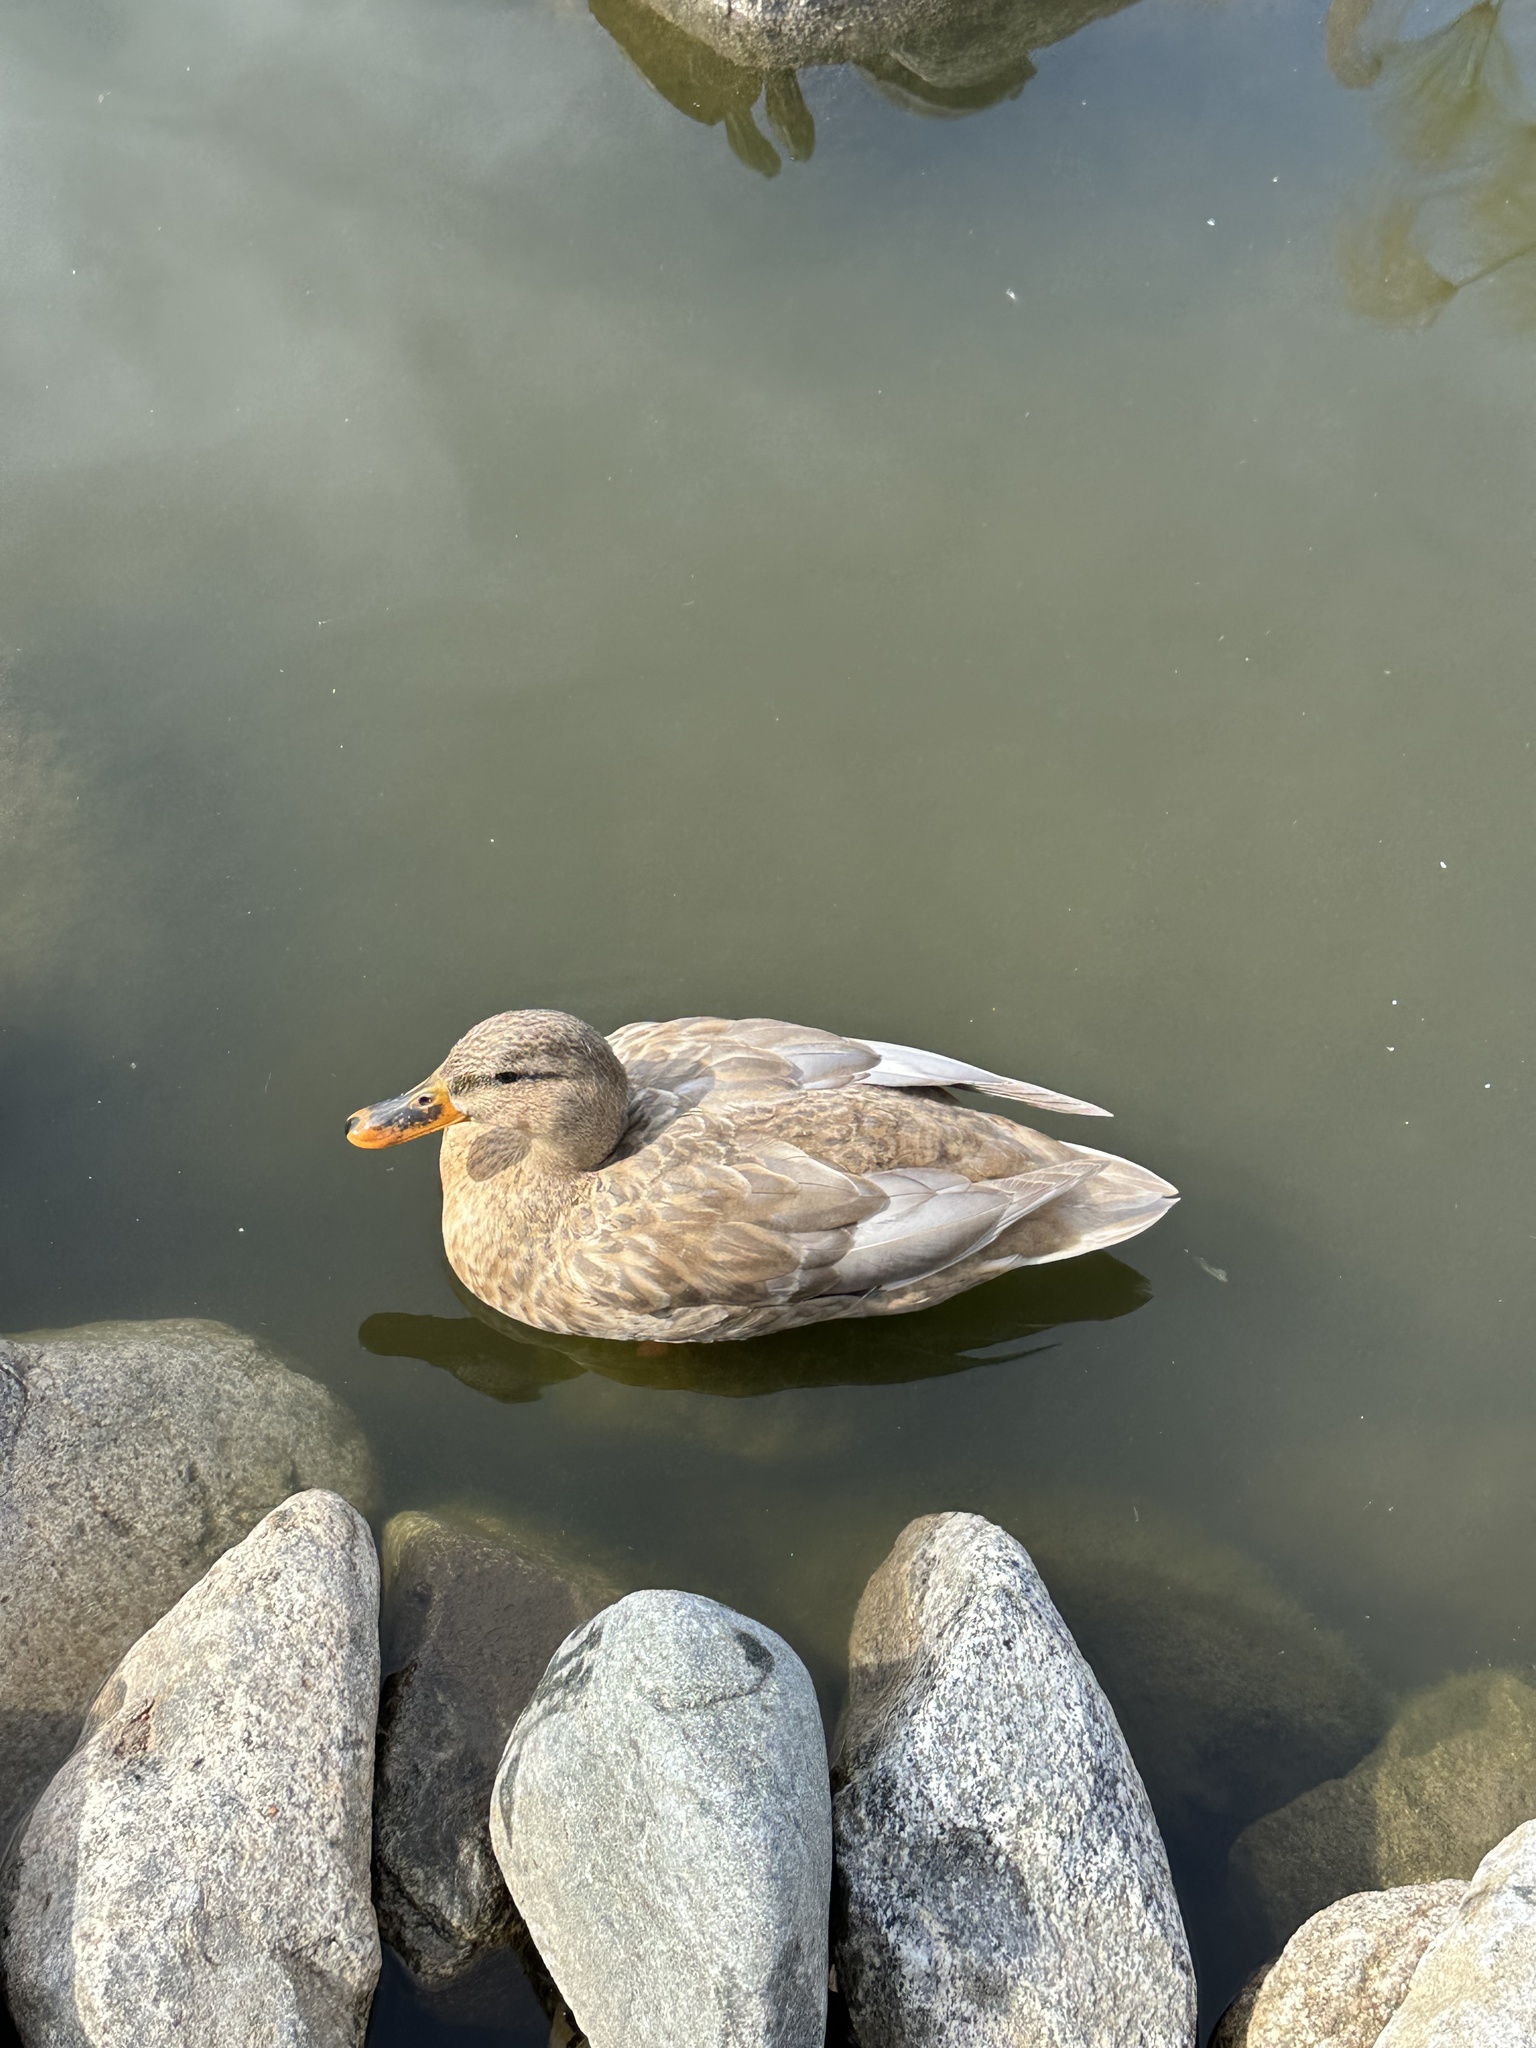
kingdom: Animalia
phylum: Chordata
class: Aves
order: Anseriformes
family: Anatidae
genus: Anas
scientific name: Anas platyrhynchos
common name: Mallard
